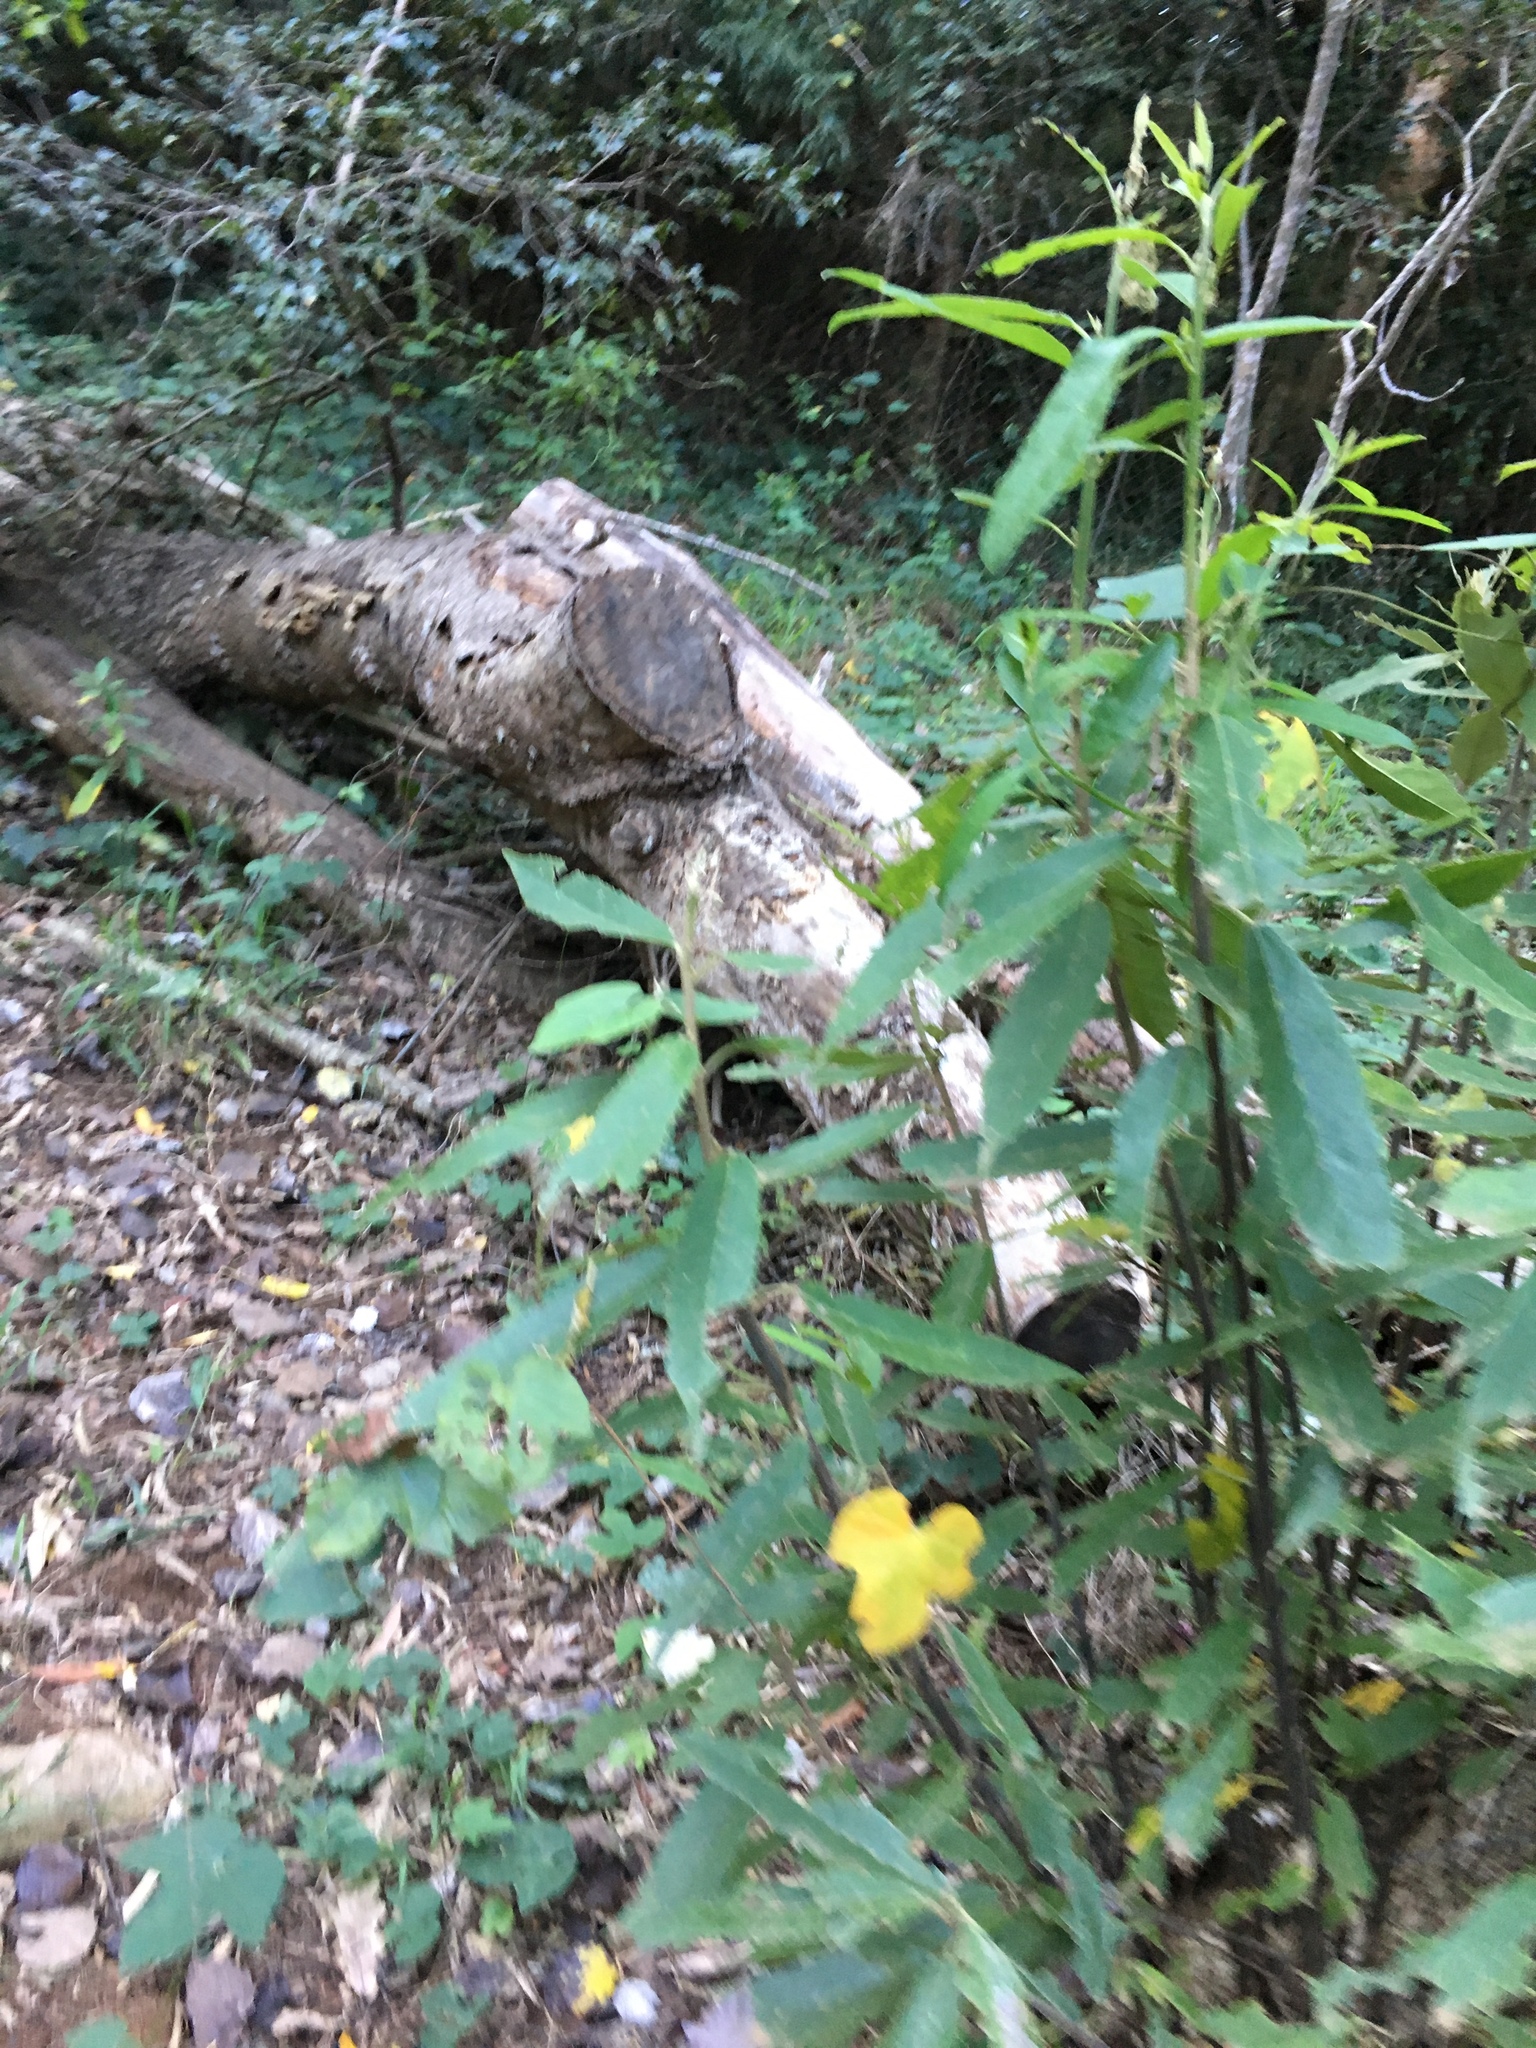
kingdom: Plantae
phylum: Tracheophyta
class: Magnoliopsida
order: Malpighiales
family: Achariaceae
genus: Kiggelaria
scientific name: Kiggelaria africana
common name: Wild peach
